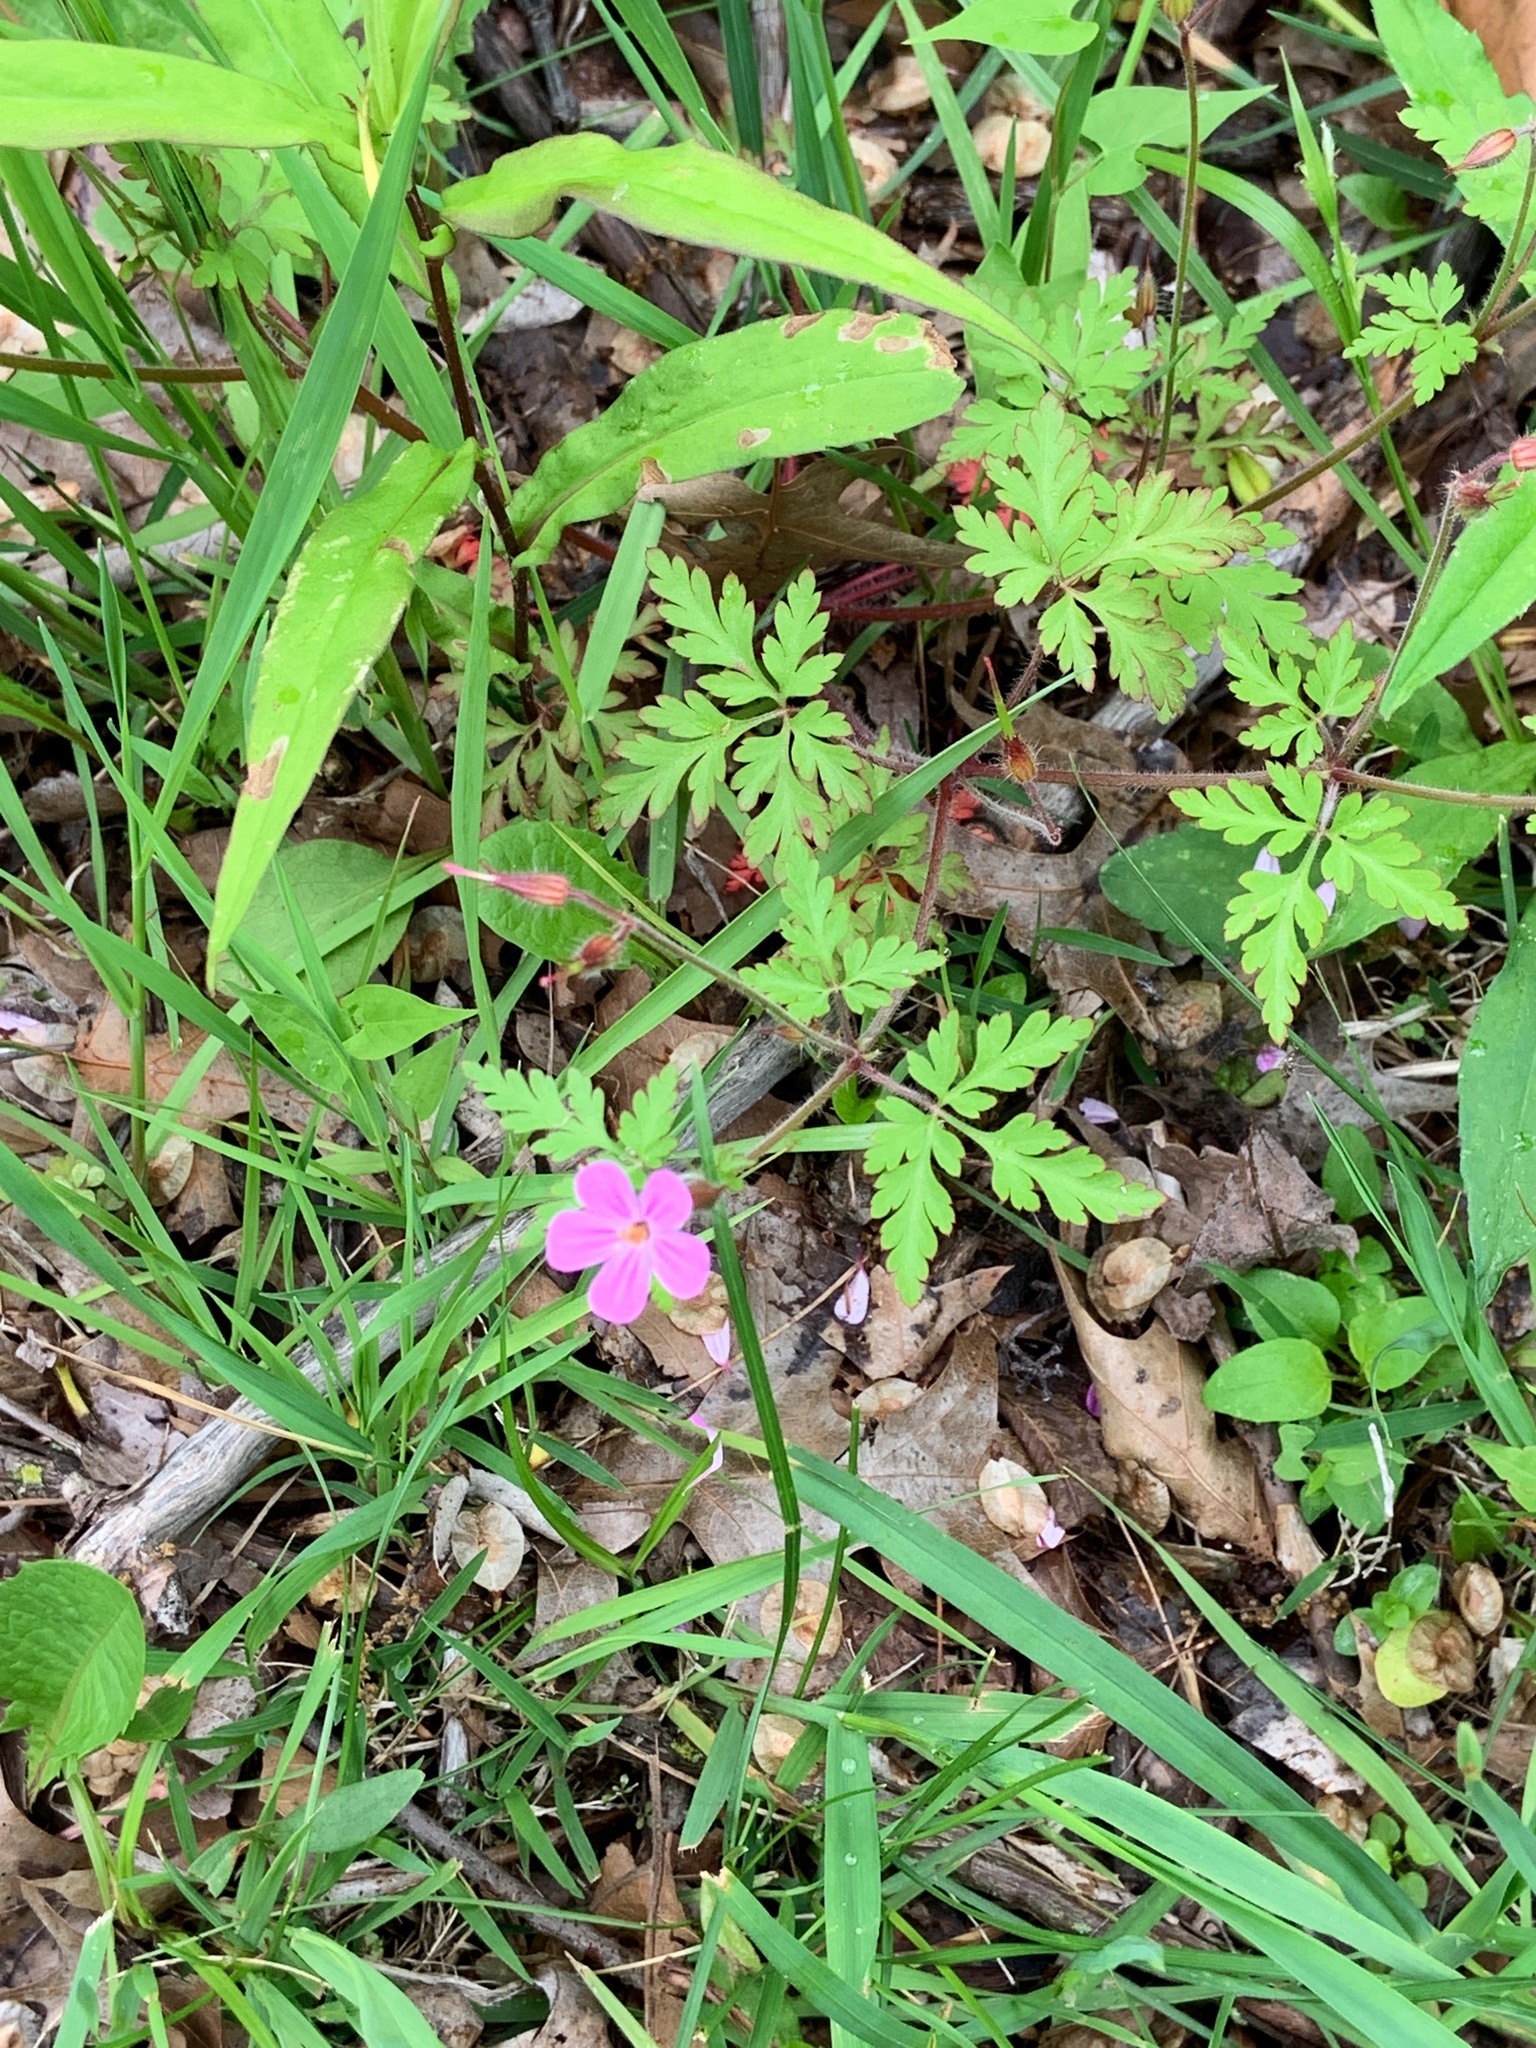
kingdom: Plantae
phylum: Tracheophyta
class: Magnoliopsida
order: Geraniales
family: Geraniaceae
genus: Geranium
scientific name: Geranium robertianum
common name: Herb-robert
